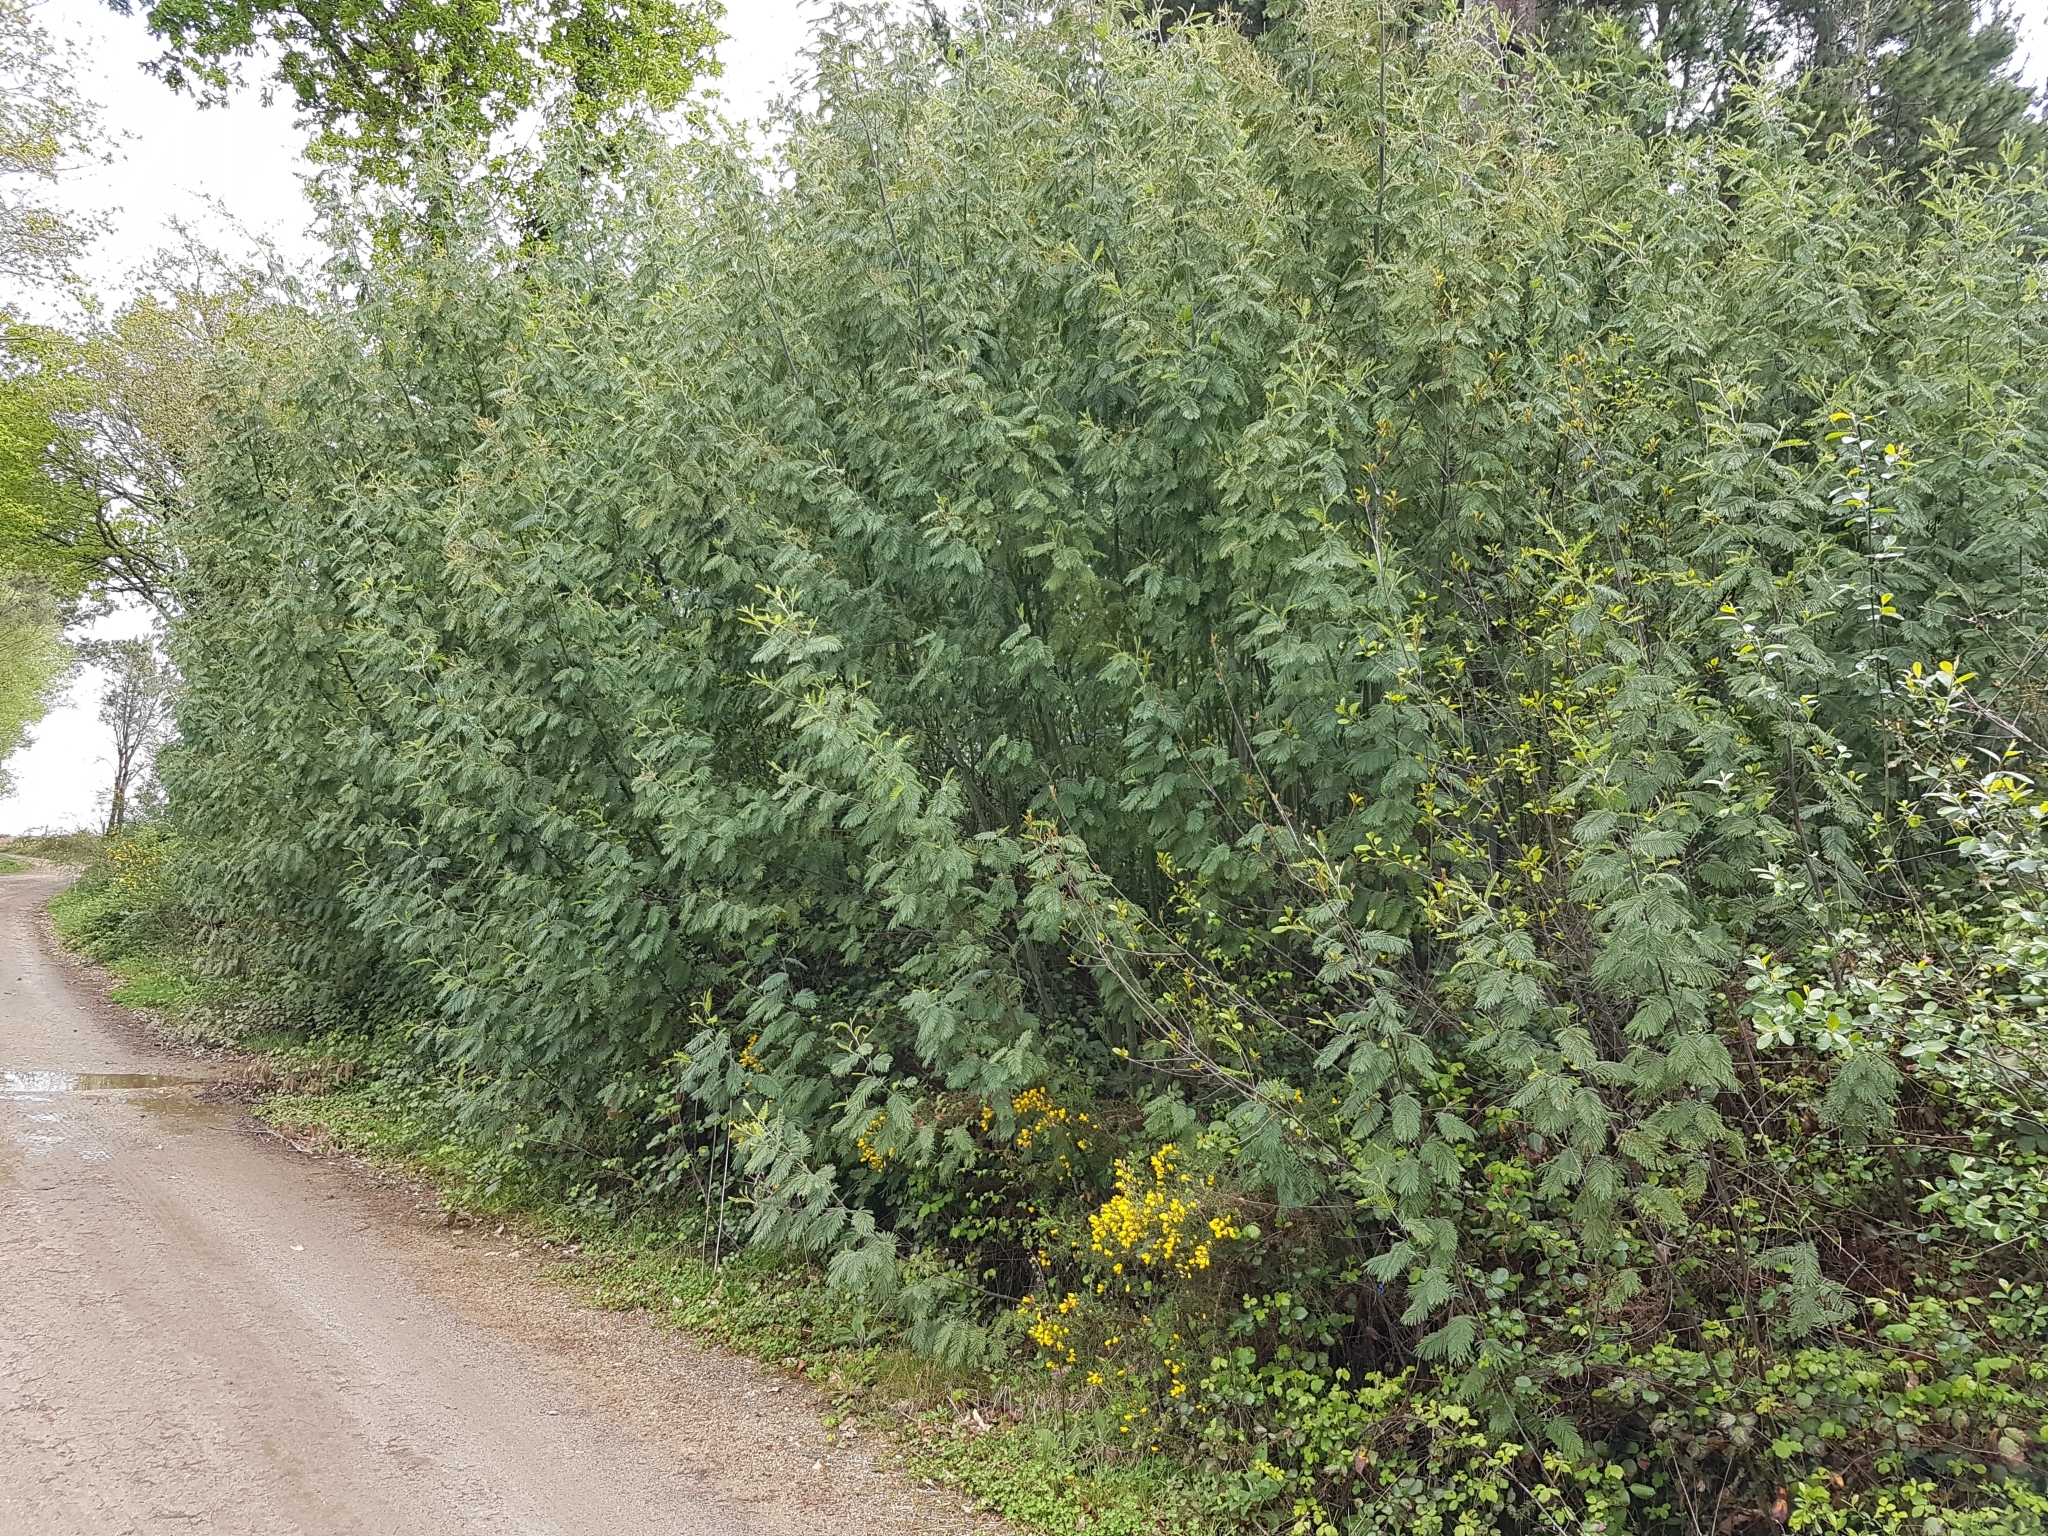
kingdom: Plantae
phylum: Tracheophyta
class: Magnoliopsida
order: Fabales
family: Fabaceae
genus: Acacia
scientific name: Acacia dealbata
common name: Silver wattle
